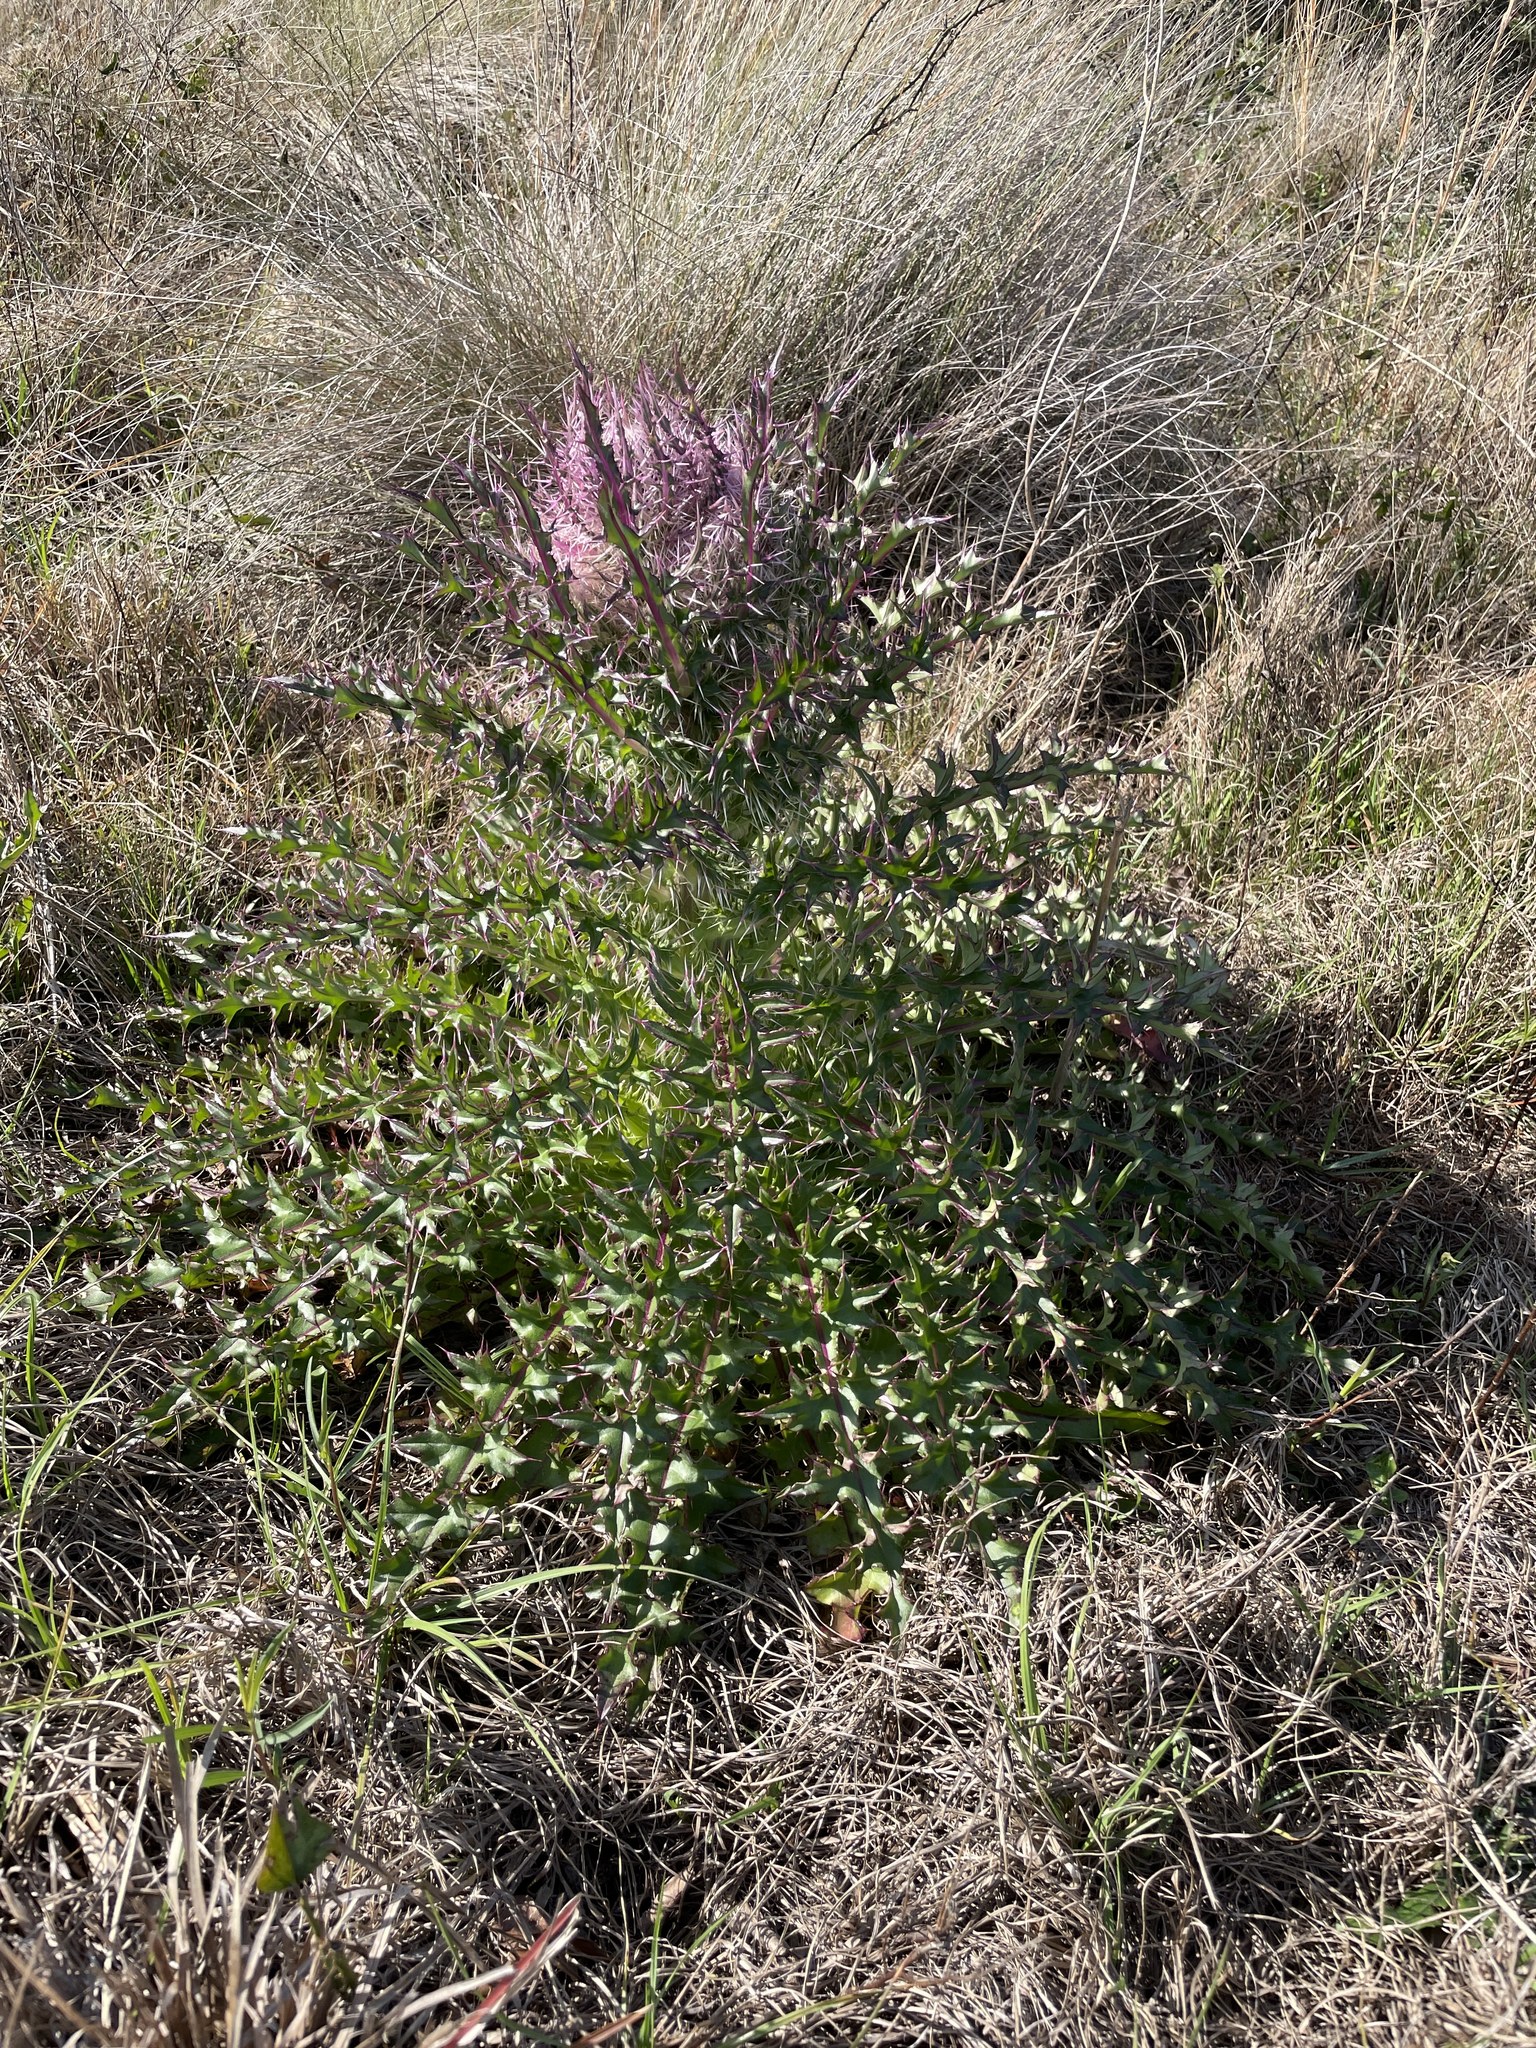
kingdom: Plantae
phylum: Tracheophyta
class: Magnoliopsida
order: Asterales
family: Asteraceae
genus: Cirsium
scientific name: Cirsium horridulum
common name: Bristly thistle
